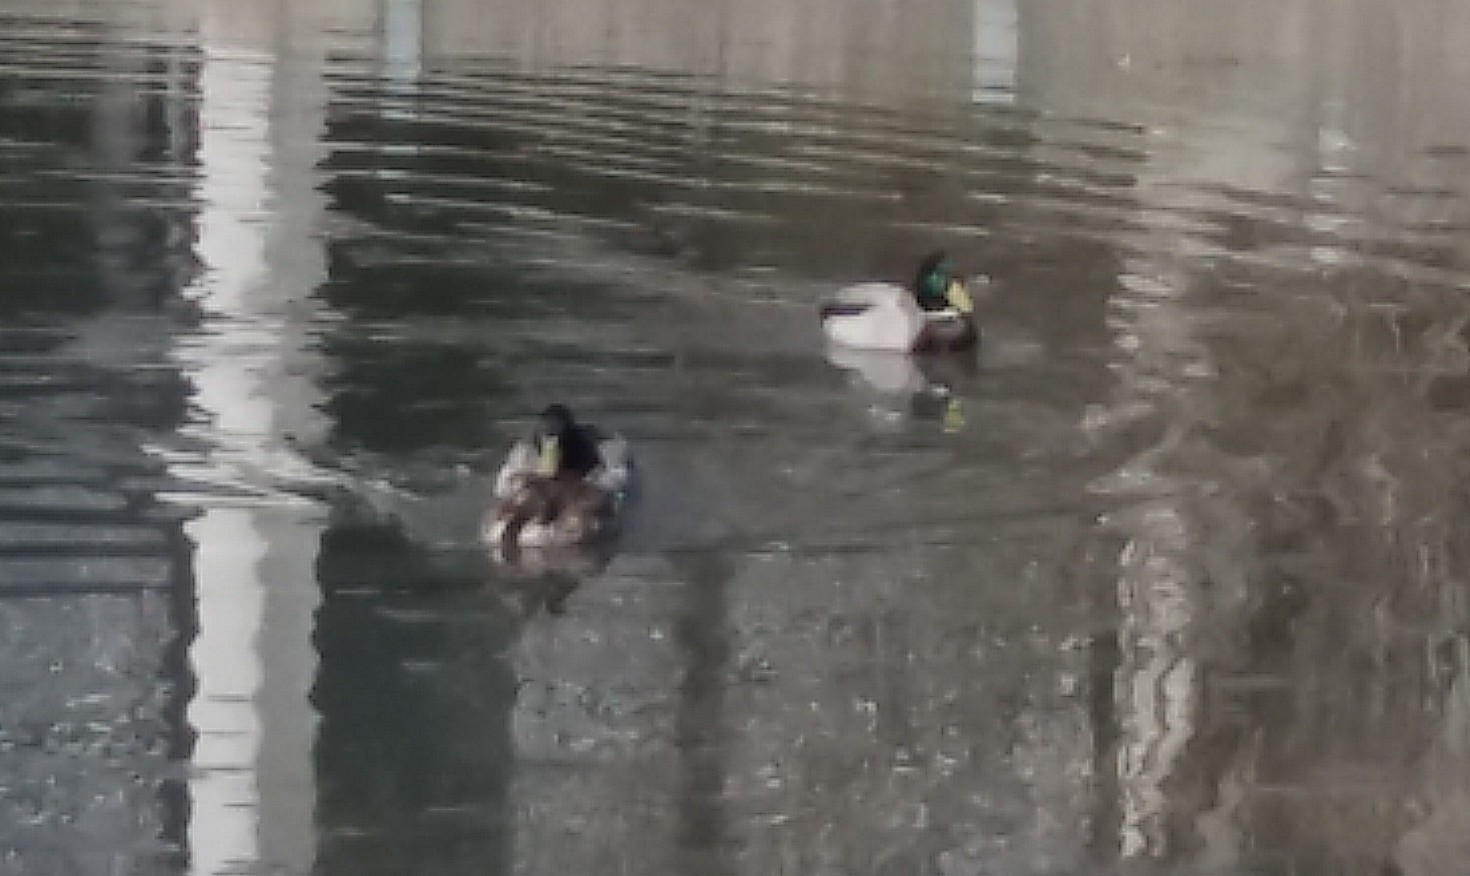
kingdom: Animalia
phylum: Chordata
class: Aves
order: Anseriformes
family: Anatidae
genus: Anas
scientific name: Anas platyrhynchos
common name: Mallard
